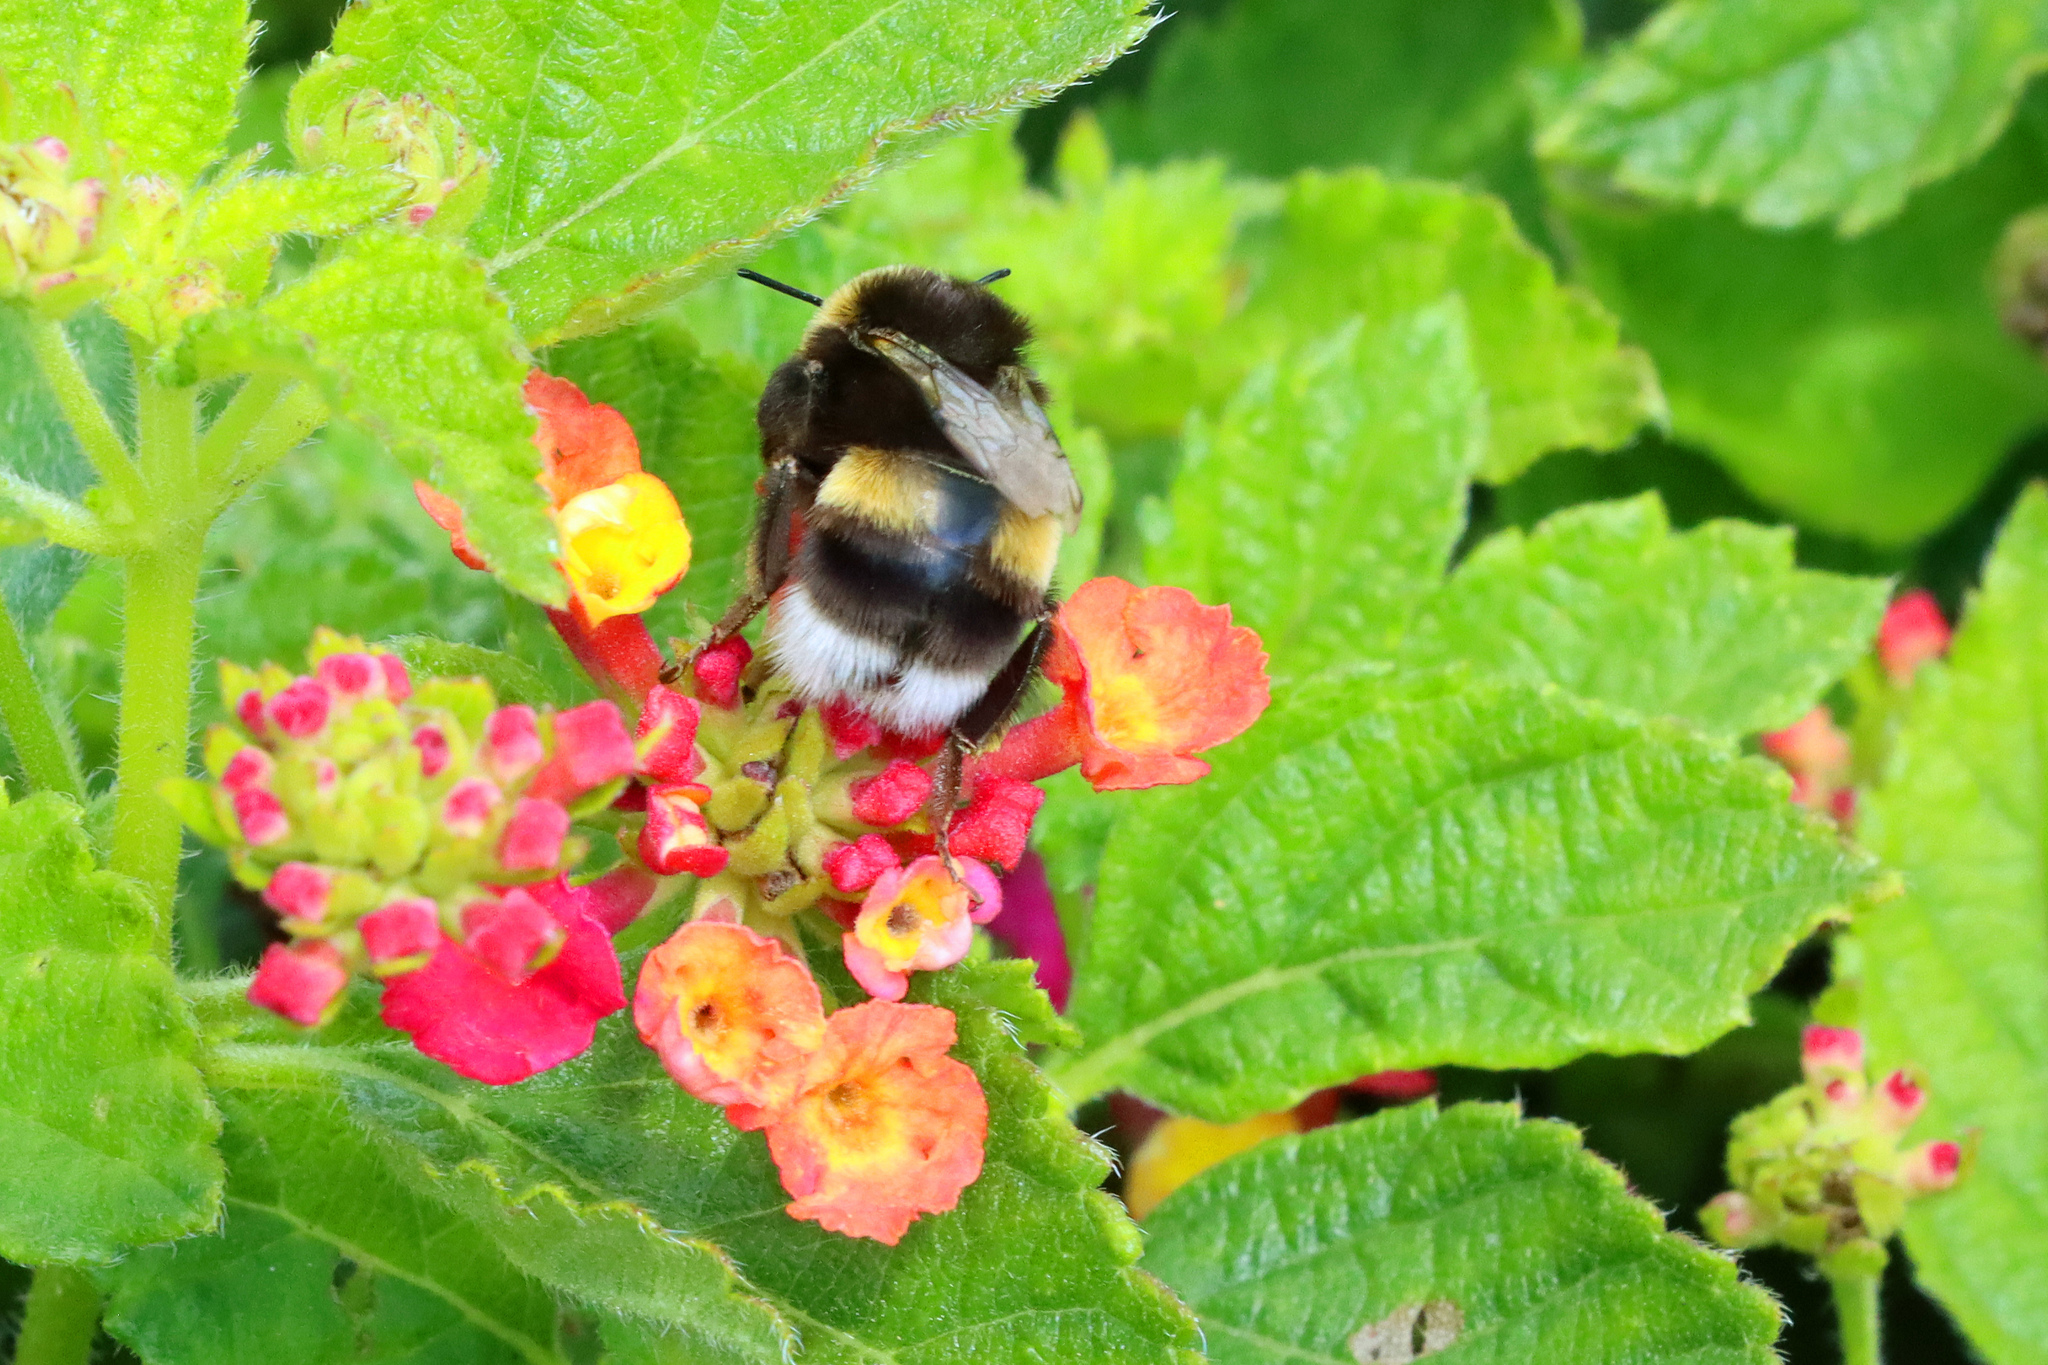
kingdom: Animalia
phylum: Arthropoda
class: Insecta
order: Hymenoptera
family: Apidae
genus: Bombus
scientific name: Bombus terrestris
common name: Buff-tailed bumblebee
